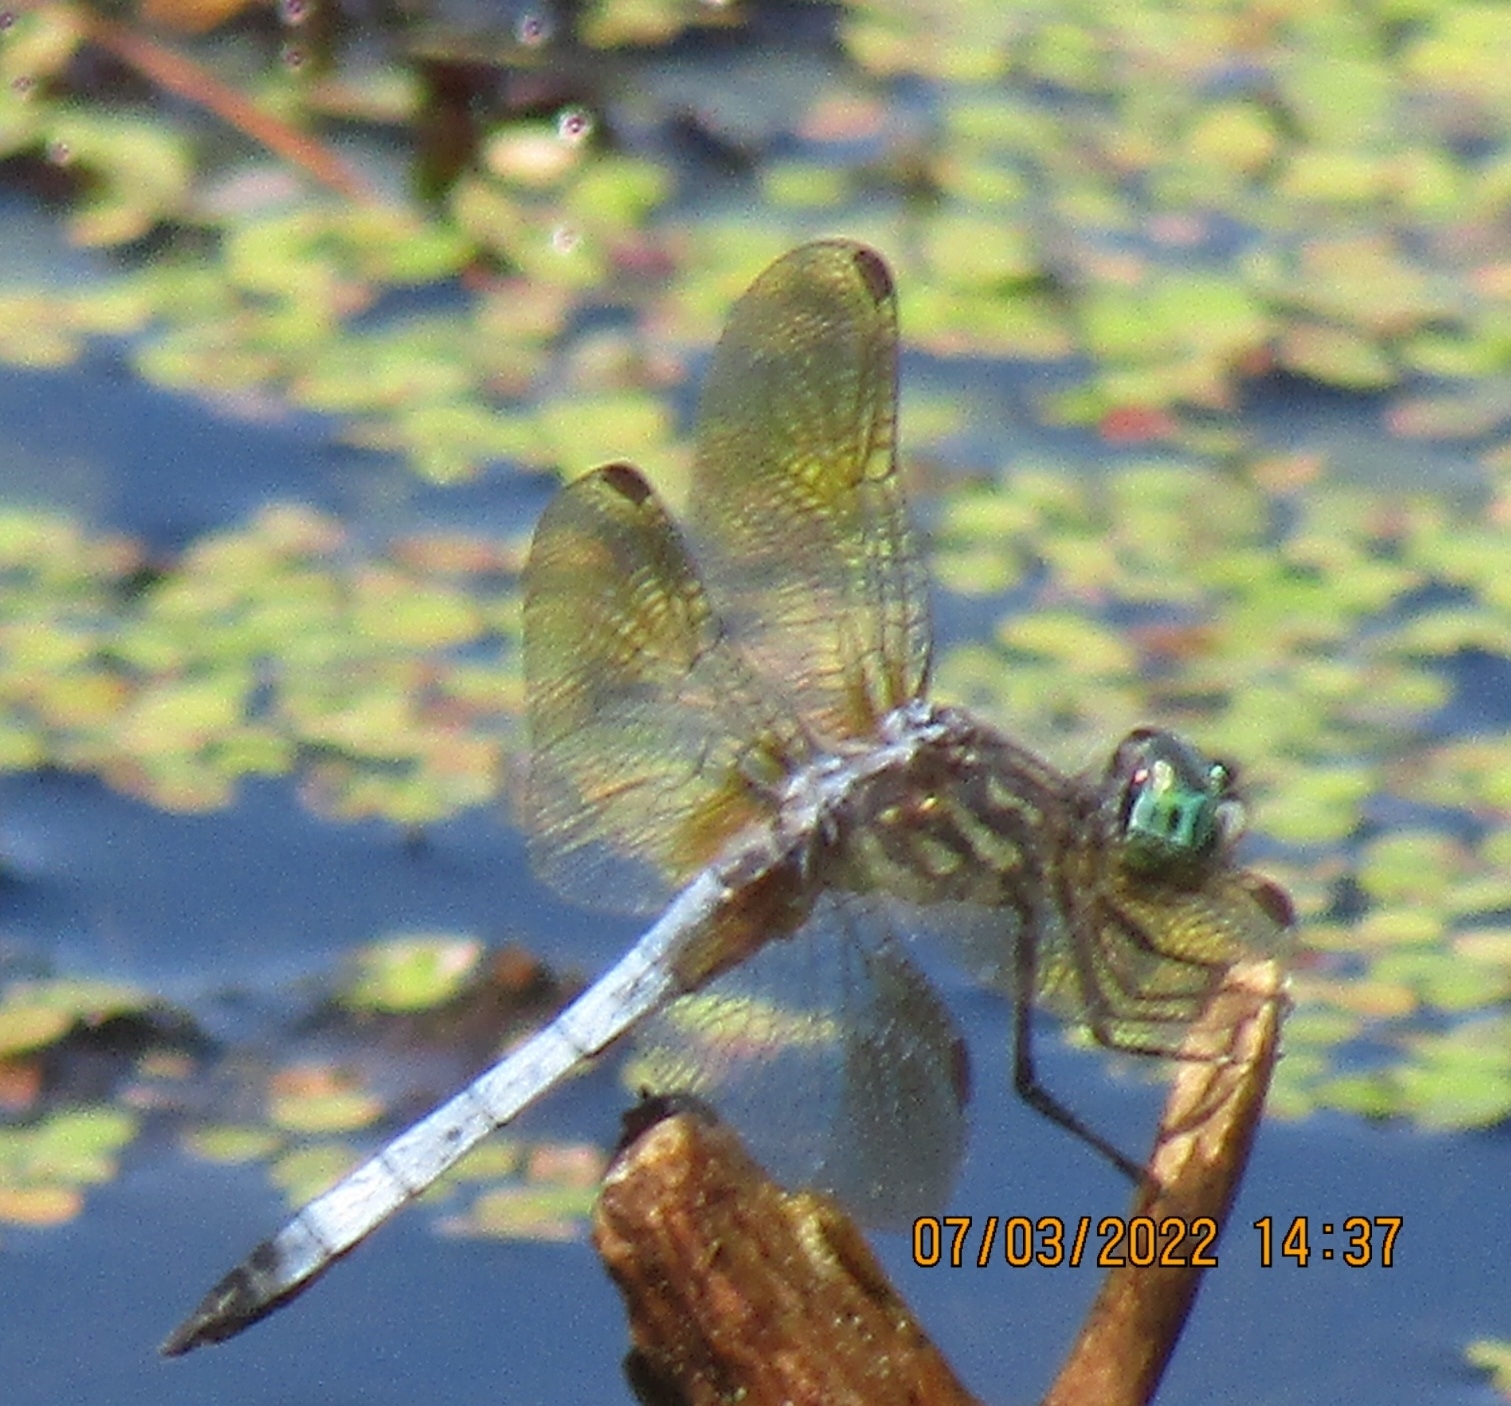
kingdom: Animalia
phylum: Arthropoda
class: Insecta
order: Odonata
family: Libellulidae
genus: Pachydiplax
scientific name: Pachydiplax longipennis
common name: Blue dasher
